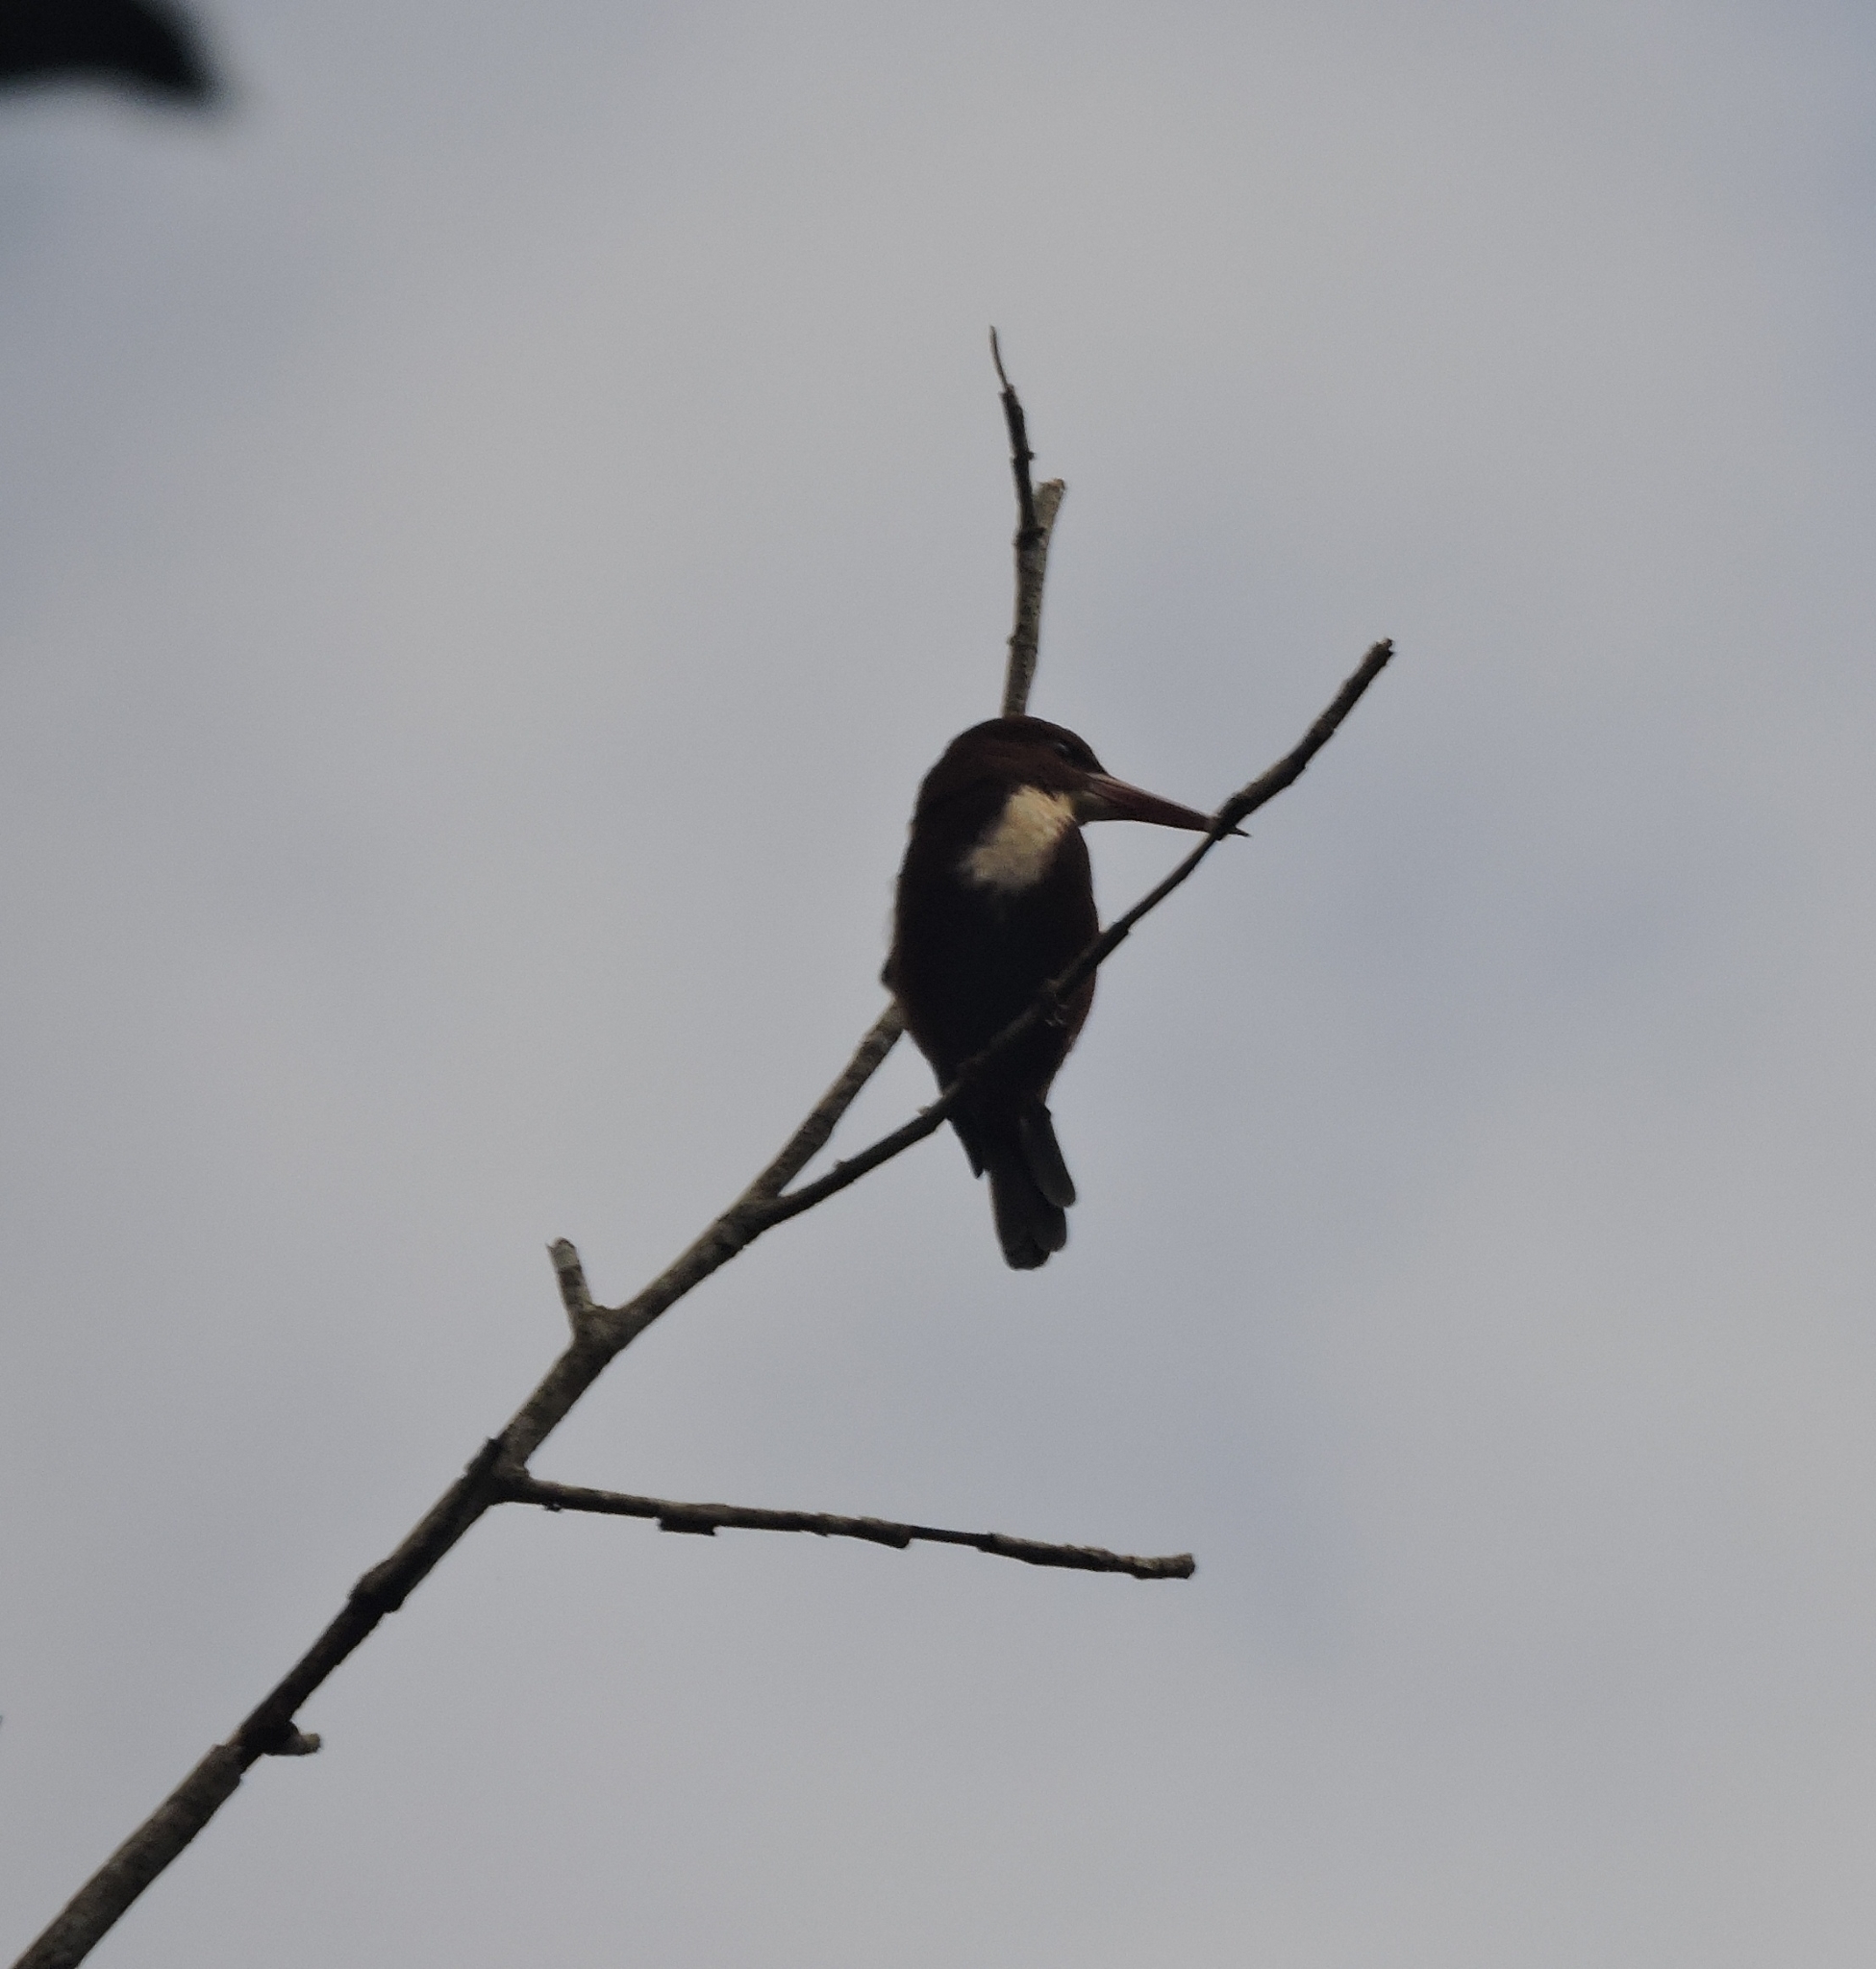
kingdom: Animalia
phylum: Chordata
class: Aves
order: Coraciiformes
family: Alcedinidae
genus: Halcyon
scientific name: Halcyon smyrnensis
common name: White-throated kingfisher
